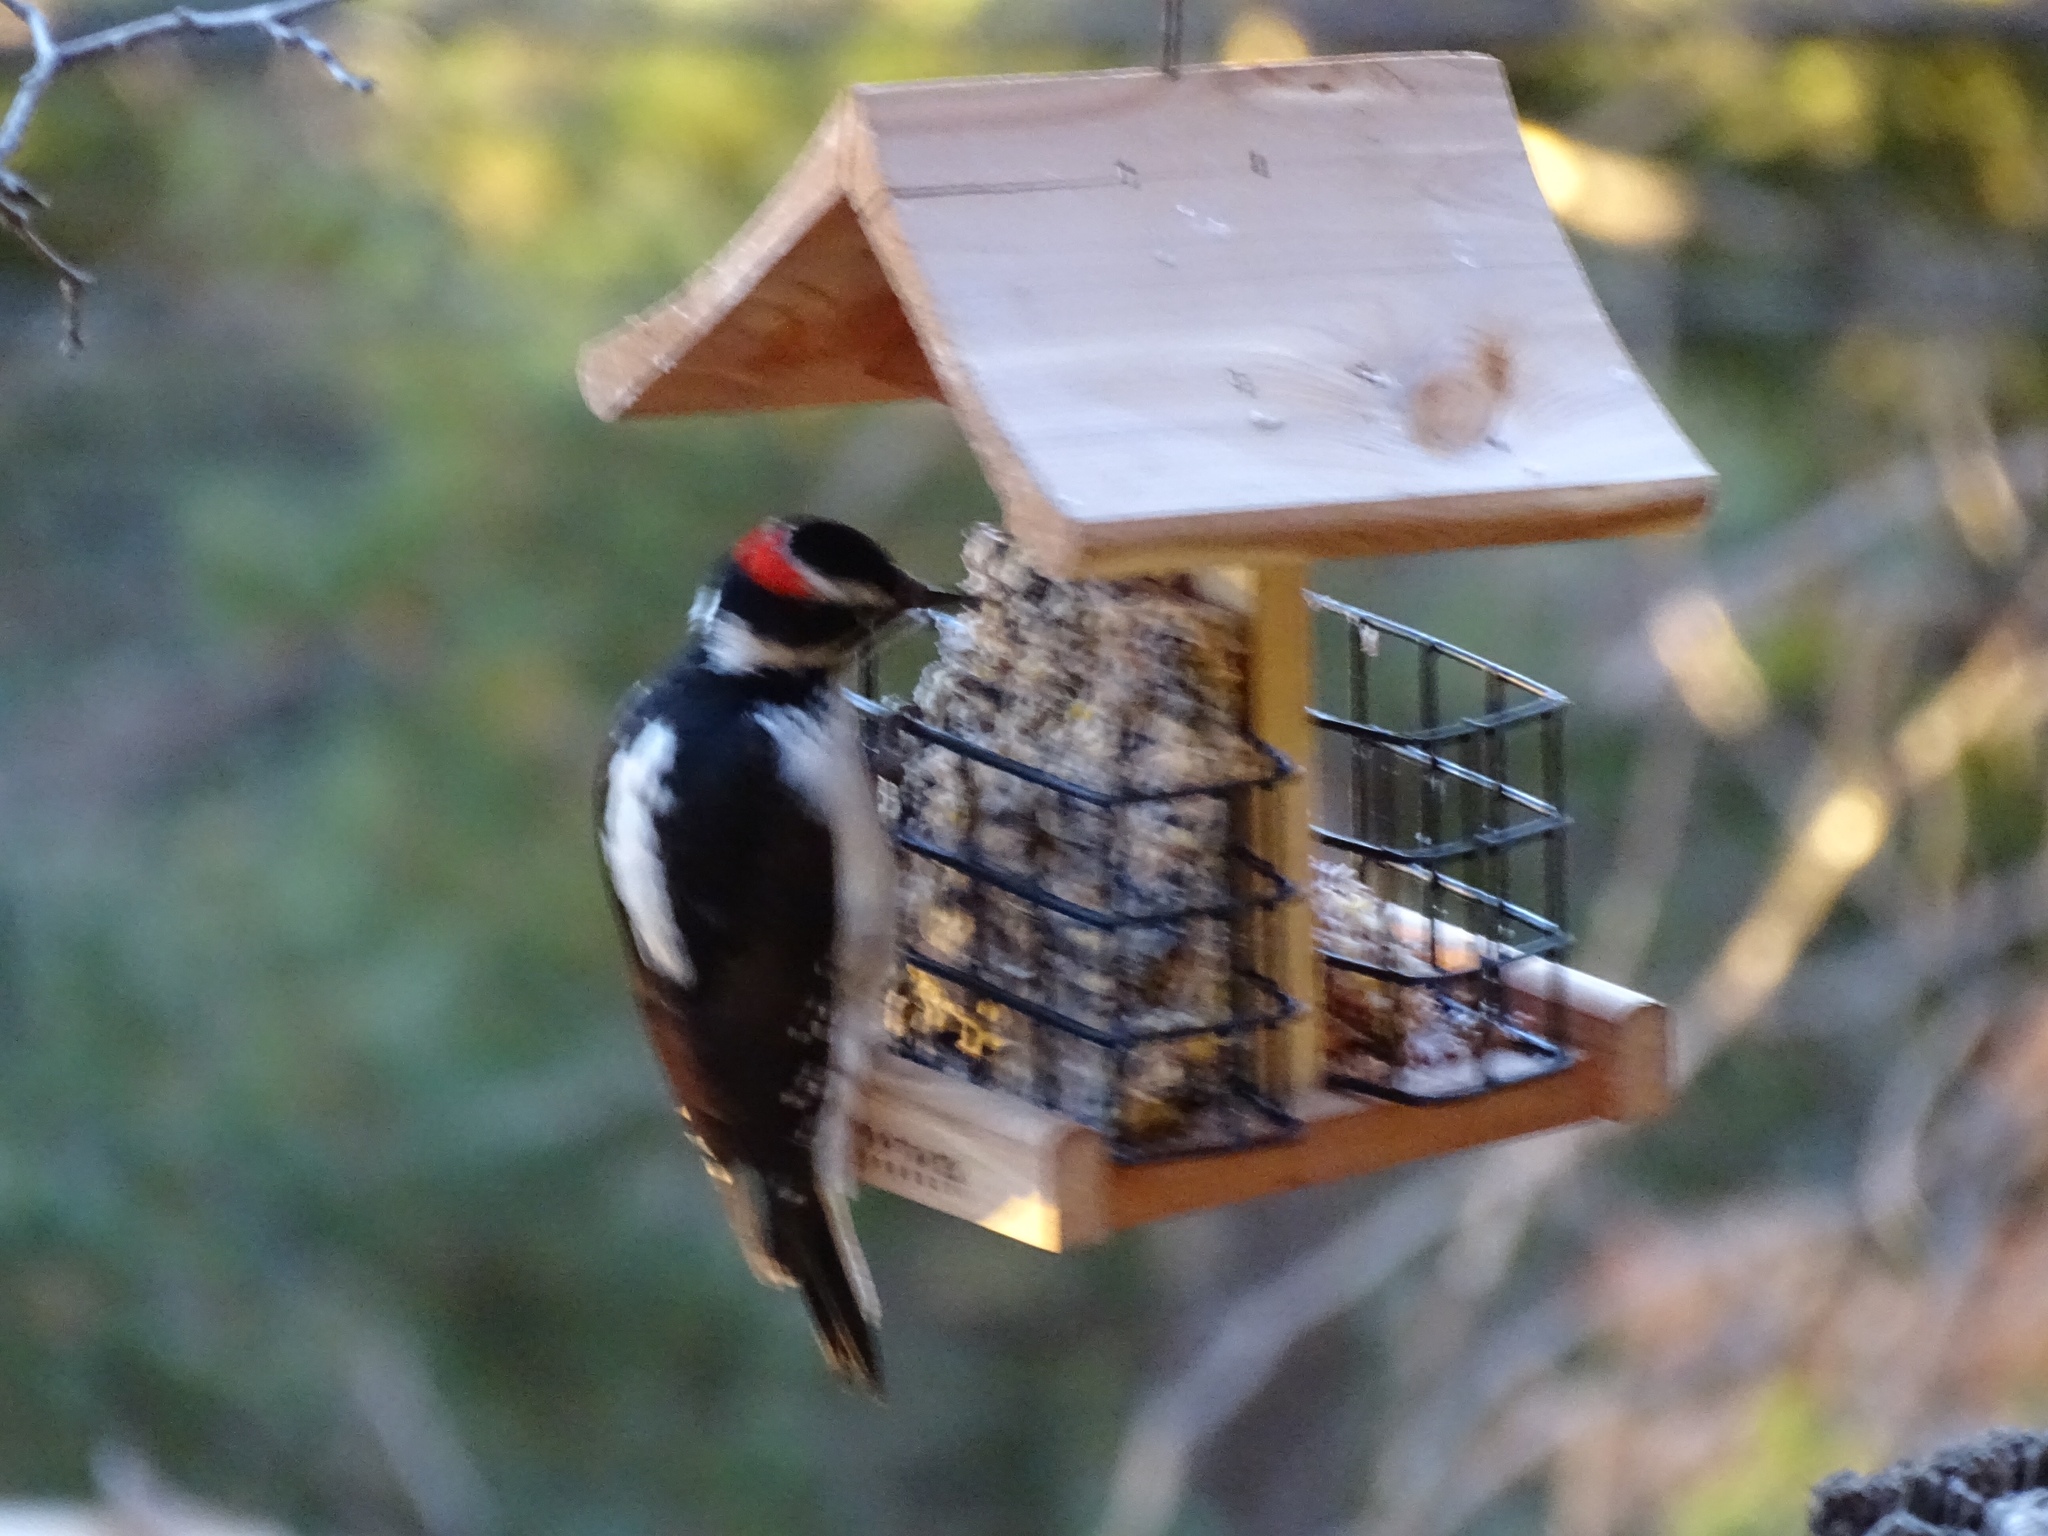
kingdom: Animalia
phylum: Chordata
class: Aves
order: Piciformes
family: Picidae
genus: Leuconotopicus
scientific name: Leuconotopicus villosus
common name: Hairy woodpecker
